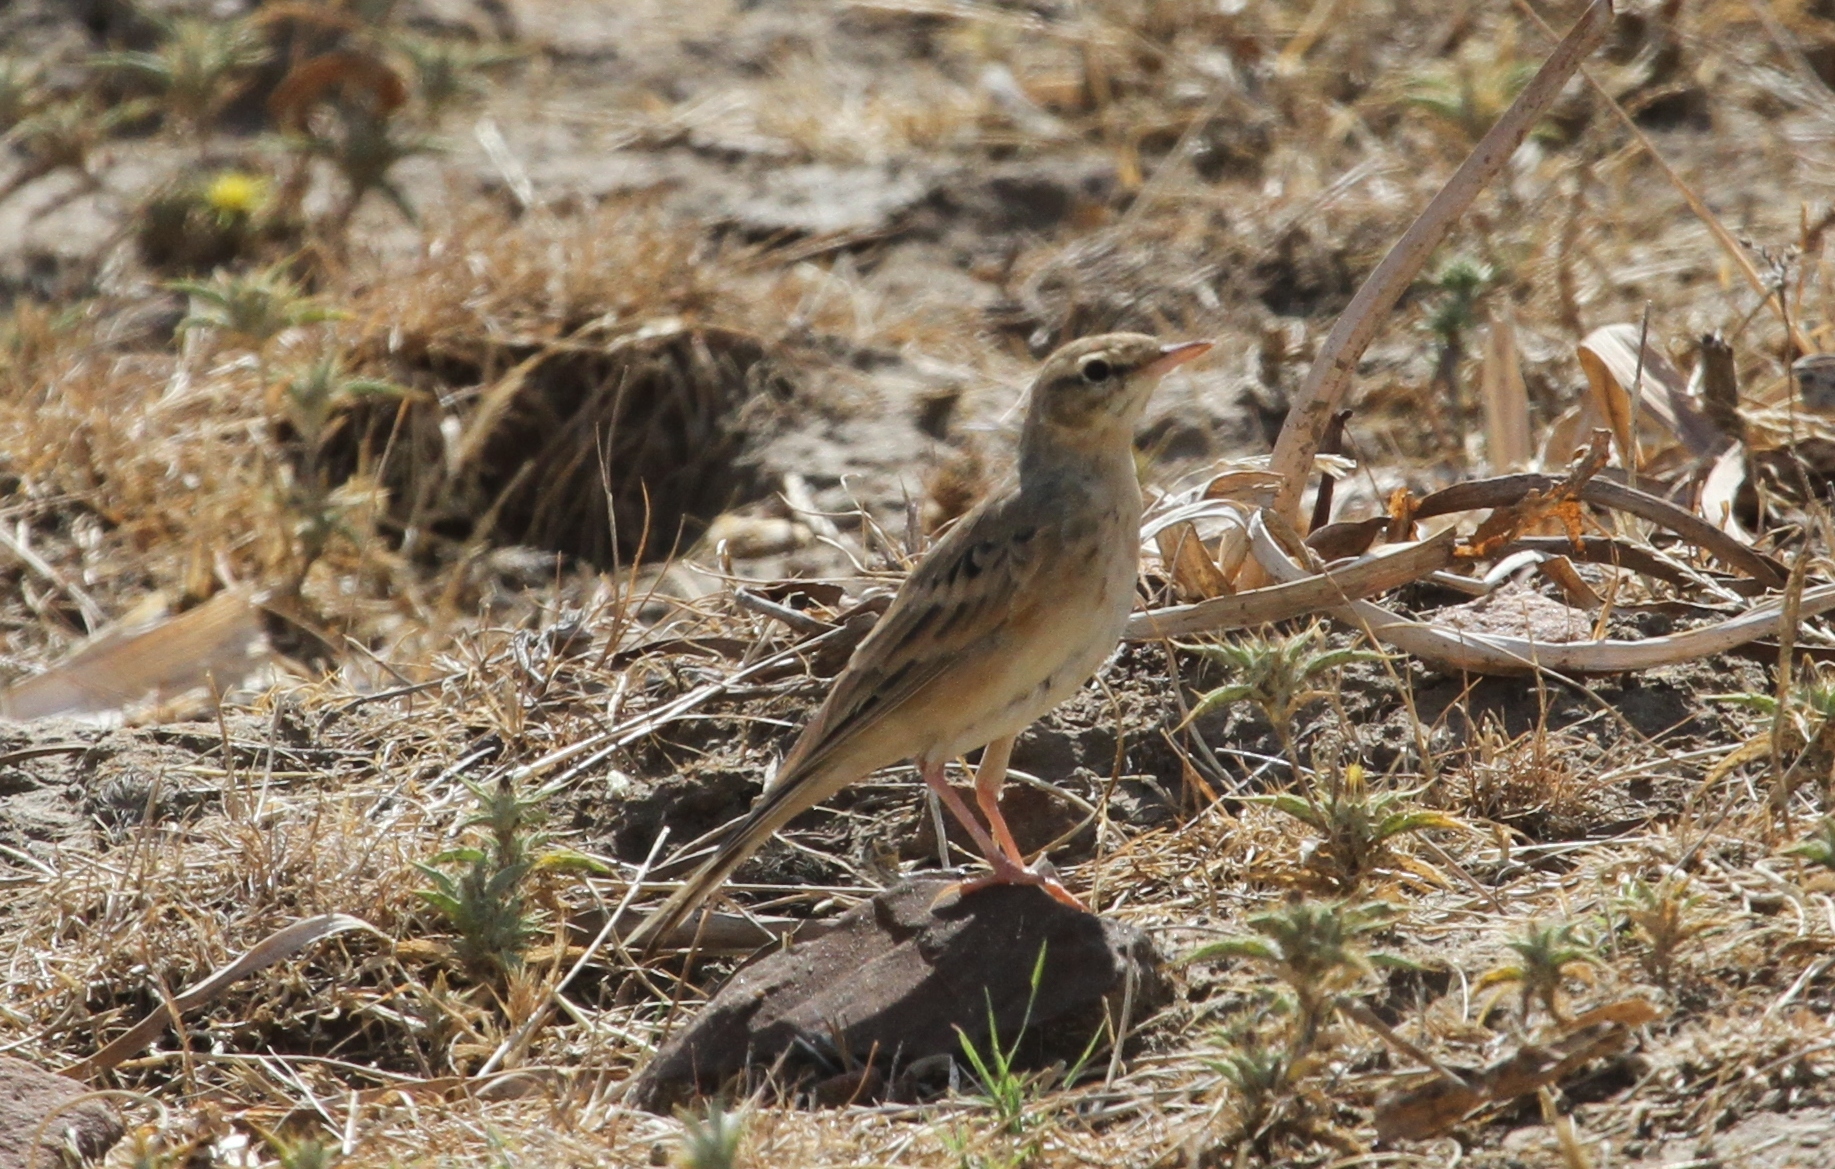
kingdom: Animalia
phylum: Chordata
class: Aves
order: Passeriformes
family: Motacillidae
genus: Anthus
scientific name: Anthus campestris
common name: Tawny pipit
